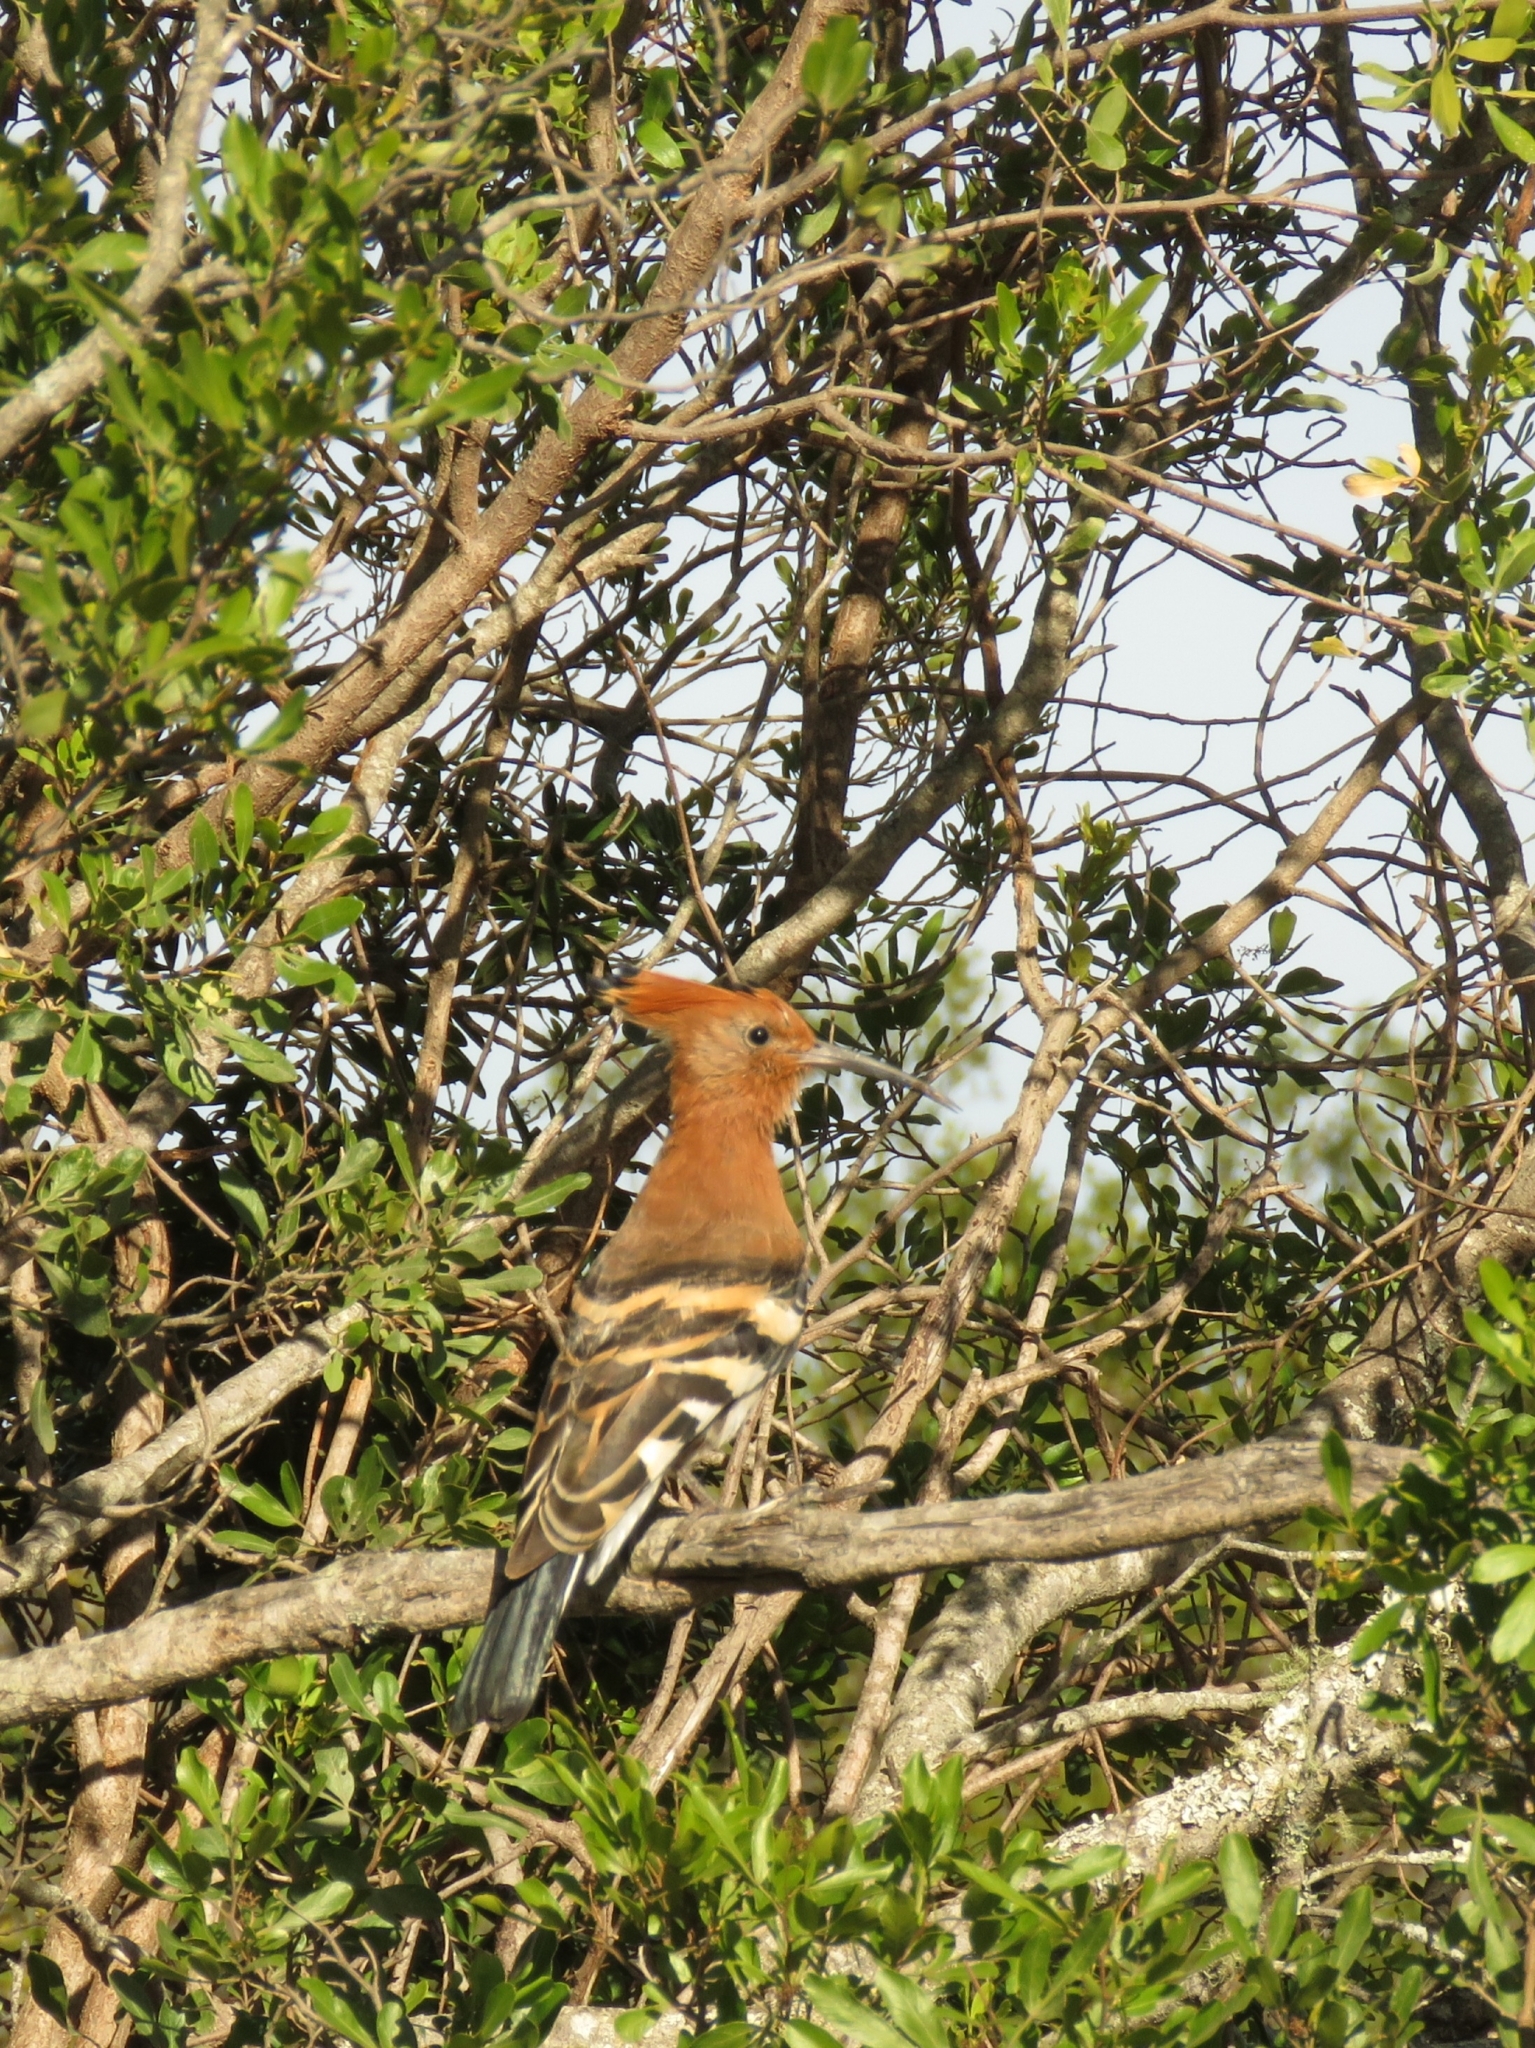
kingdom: Animalia
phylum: Chordata
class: Aves
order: Bucerotiformes
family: Upupidae
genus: Upupa
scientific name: Upupa africana
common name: African hoopoe
